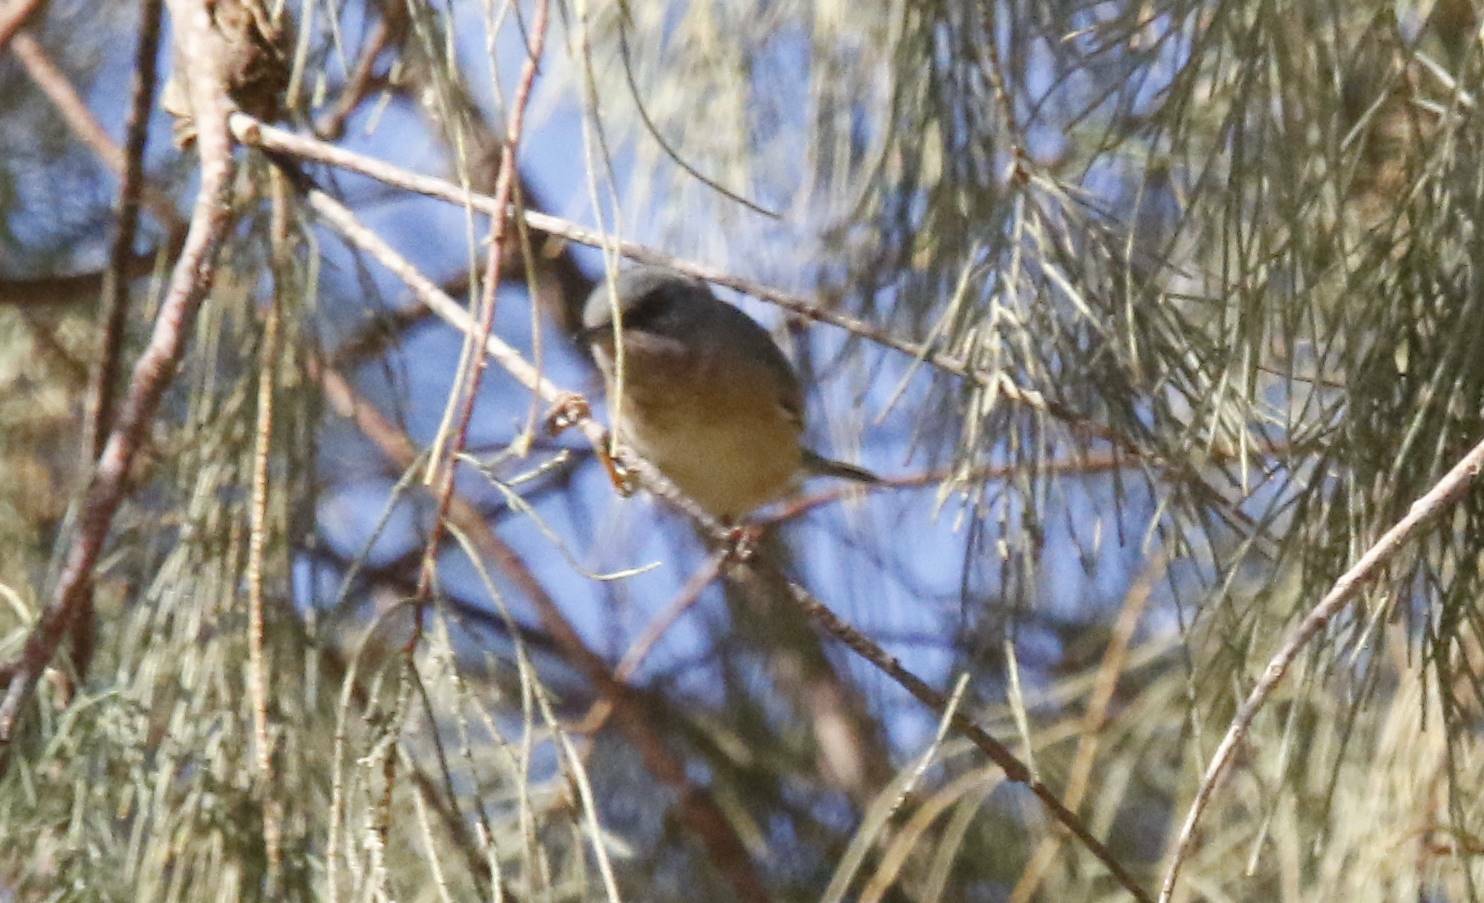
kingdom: Animalia
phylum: Chordata
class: Aves
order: Passeriformes
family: Sylviidae
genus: Curruca
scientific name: Curruca subalpina
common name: Moltoni's warbler
